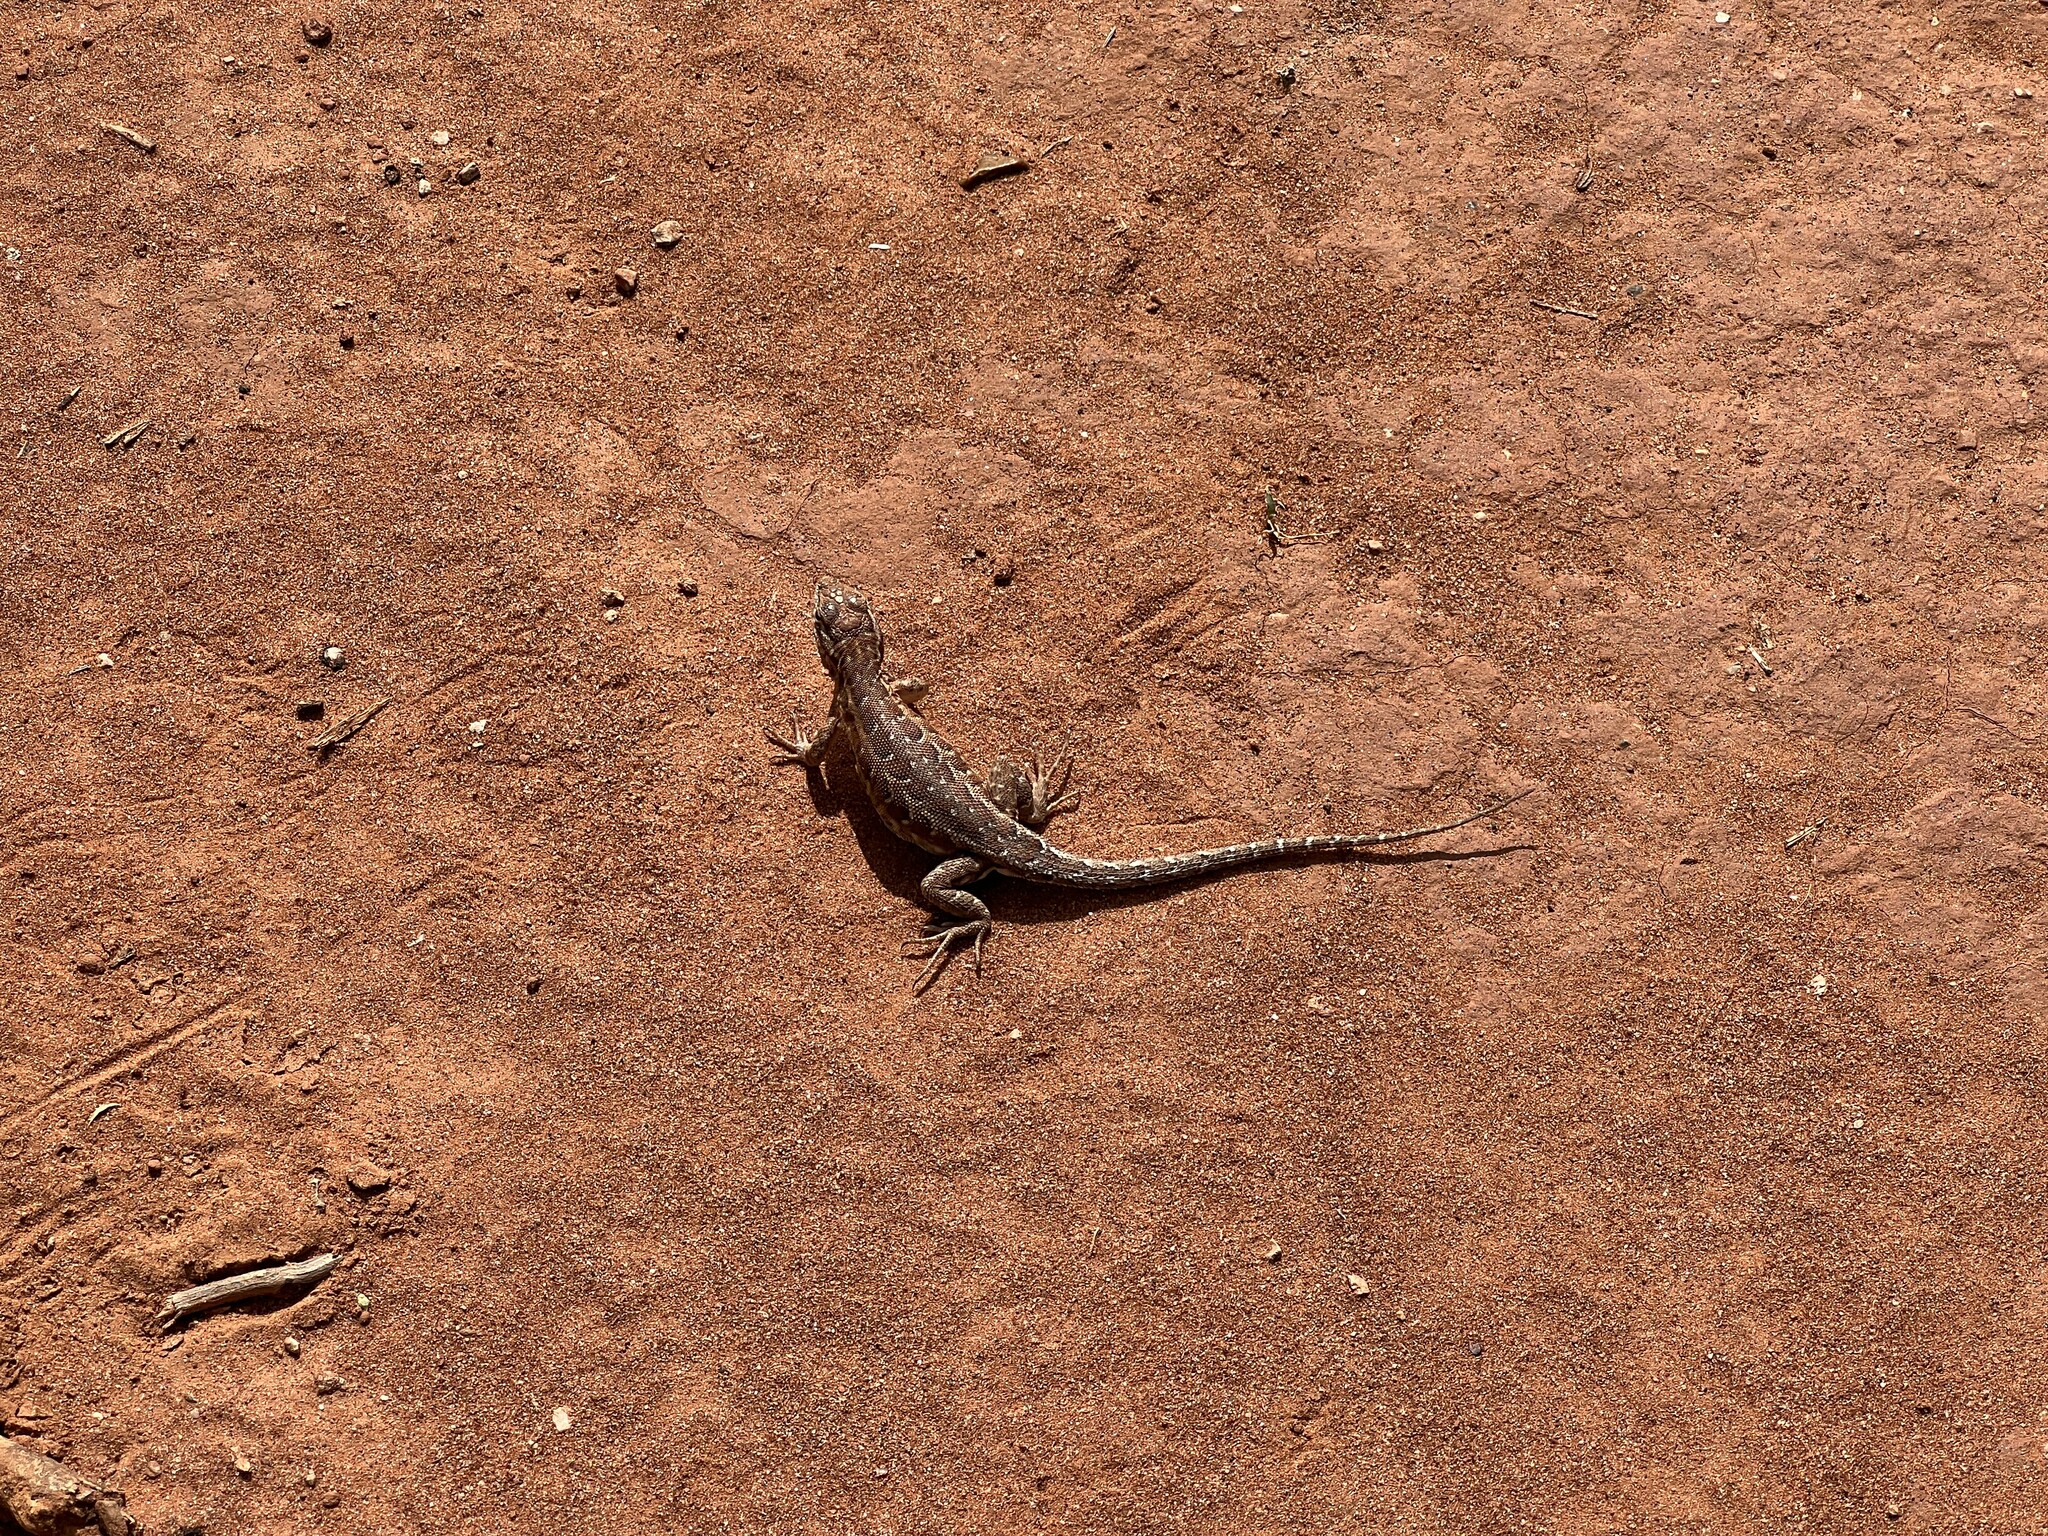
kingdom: Animalia
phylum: Chordata
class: Squamata
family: Phrynosomatidae
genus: Uta
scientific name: Uta stansburiana
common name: Side-blotched lizard
